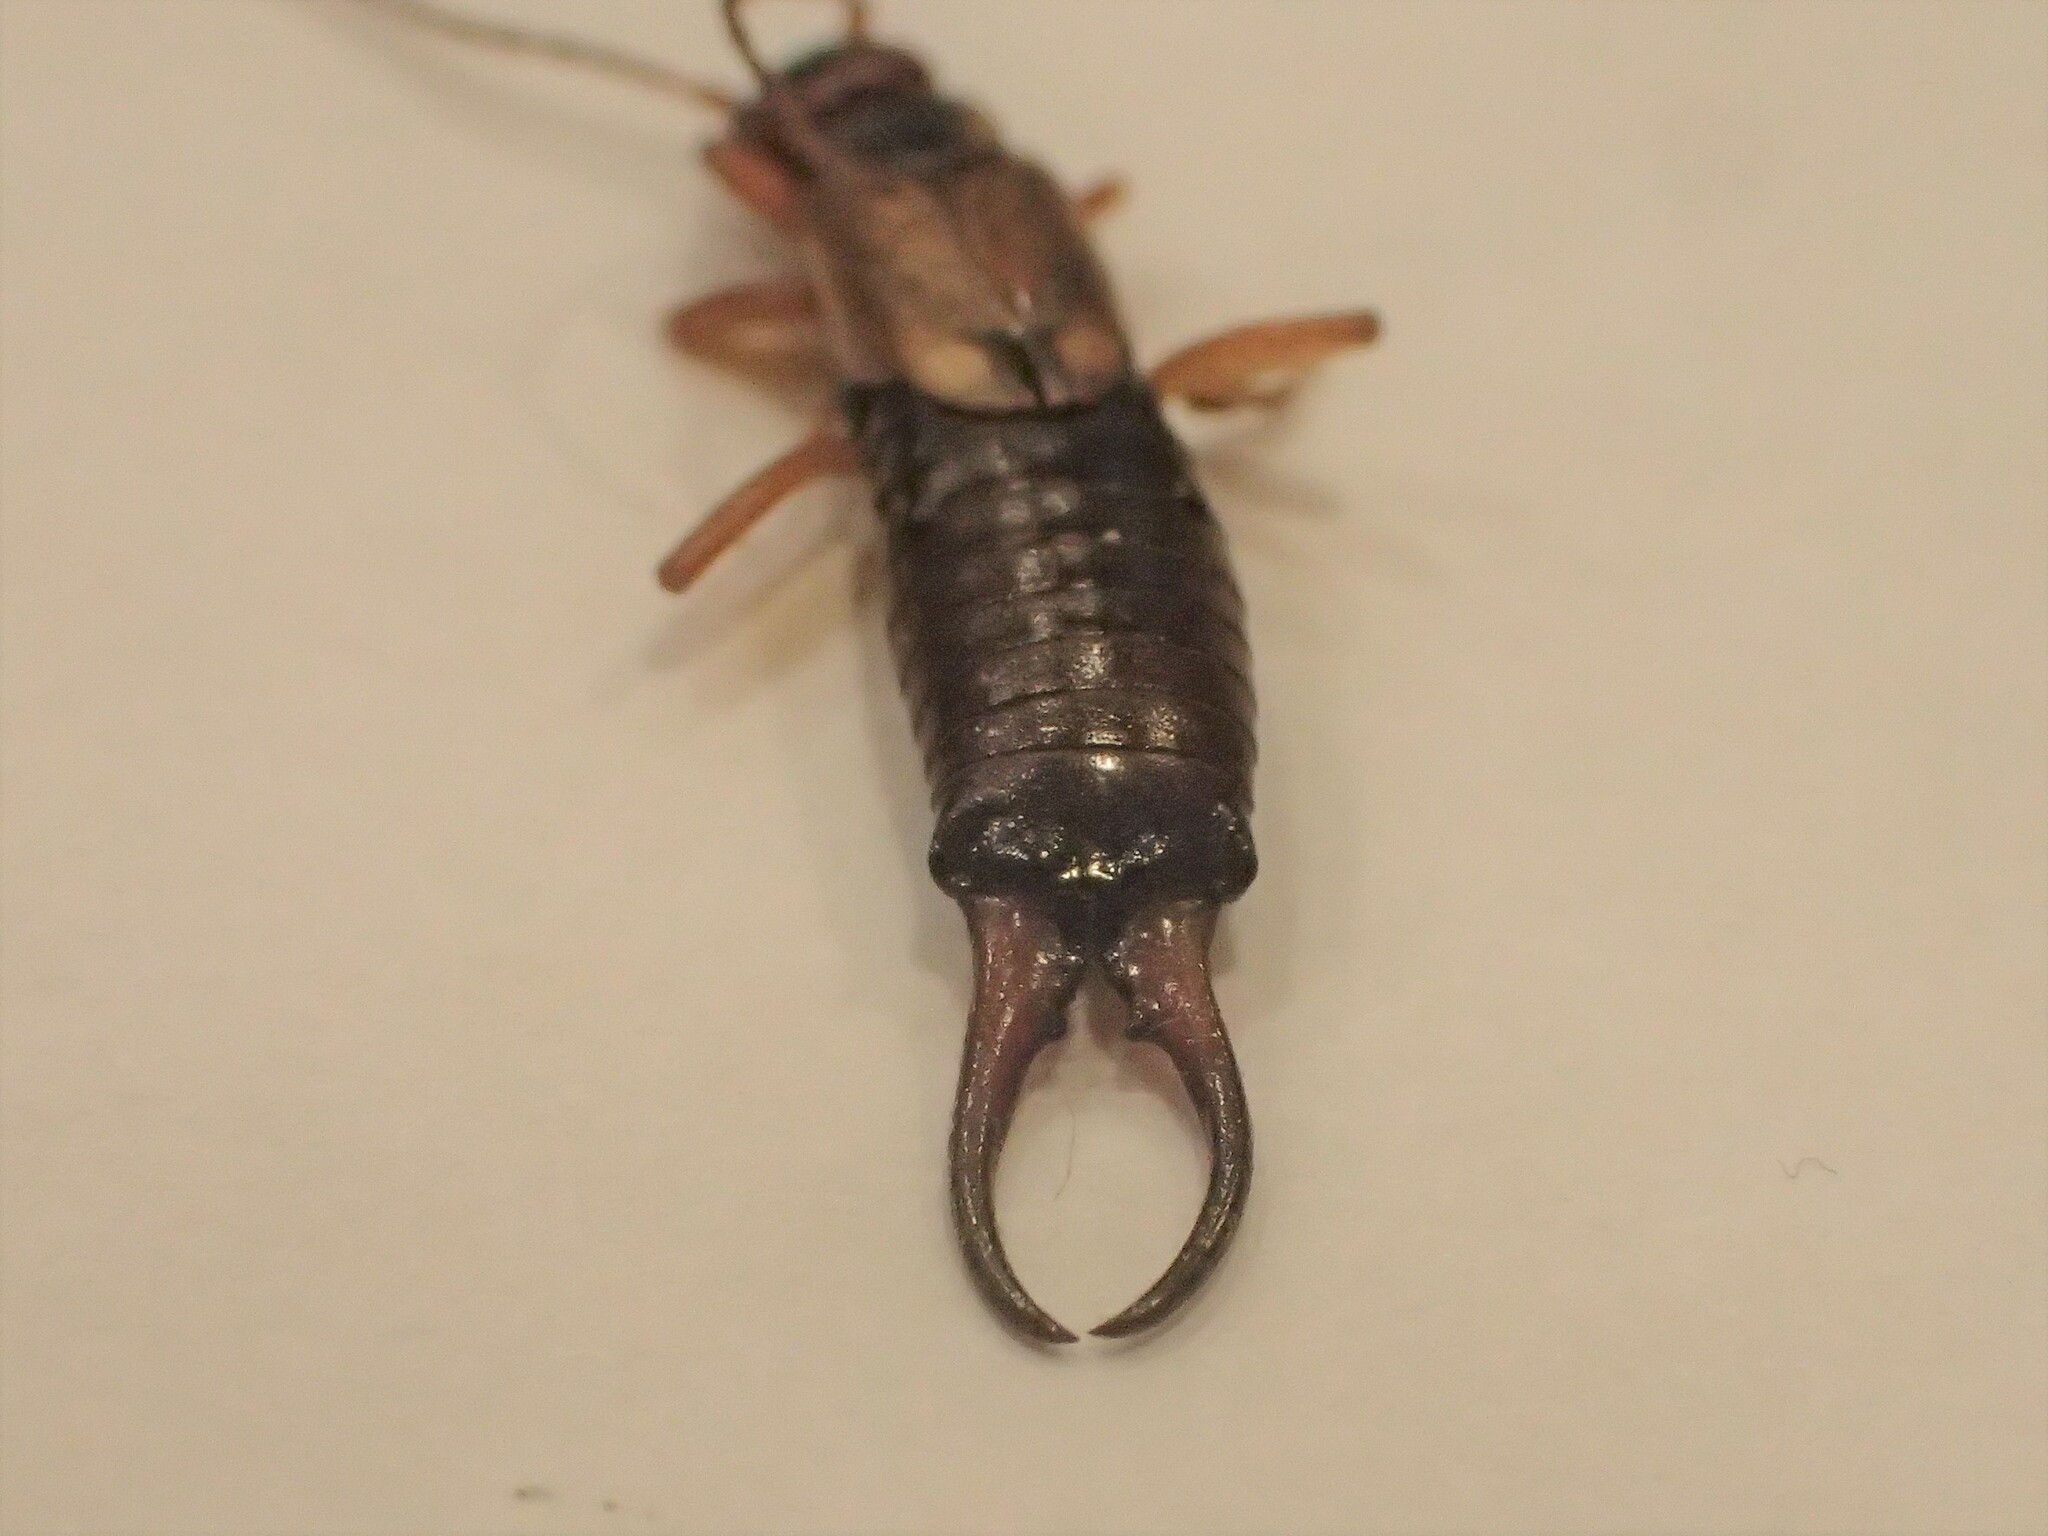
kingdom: Animalia
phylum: Arthropoda
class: Insecta
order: Dermaptera
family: Forficulidae
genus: Forficula
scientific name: Forficula
